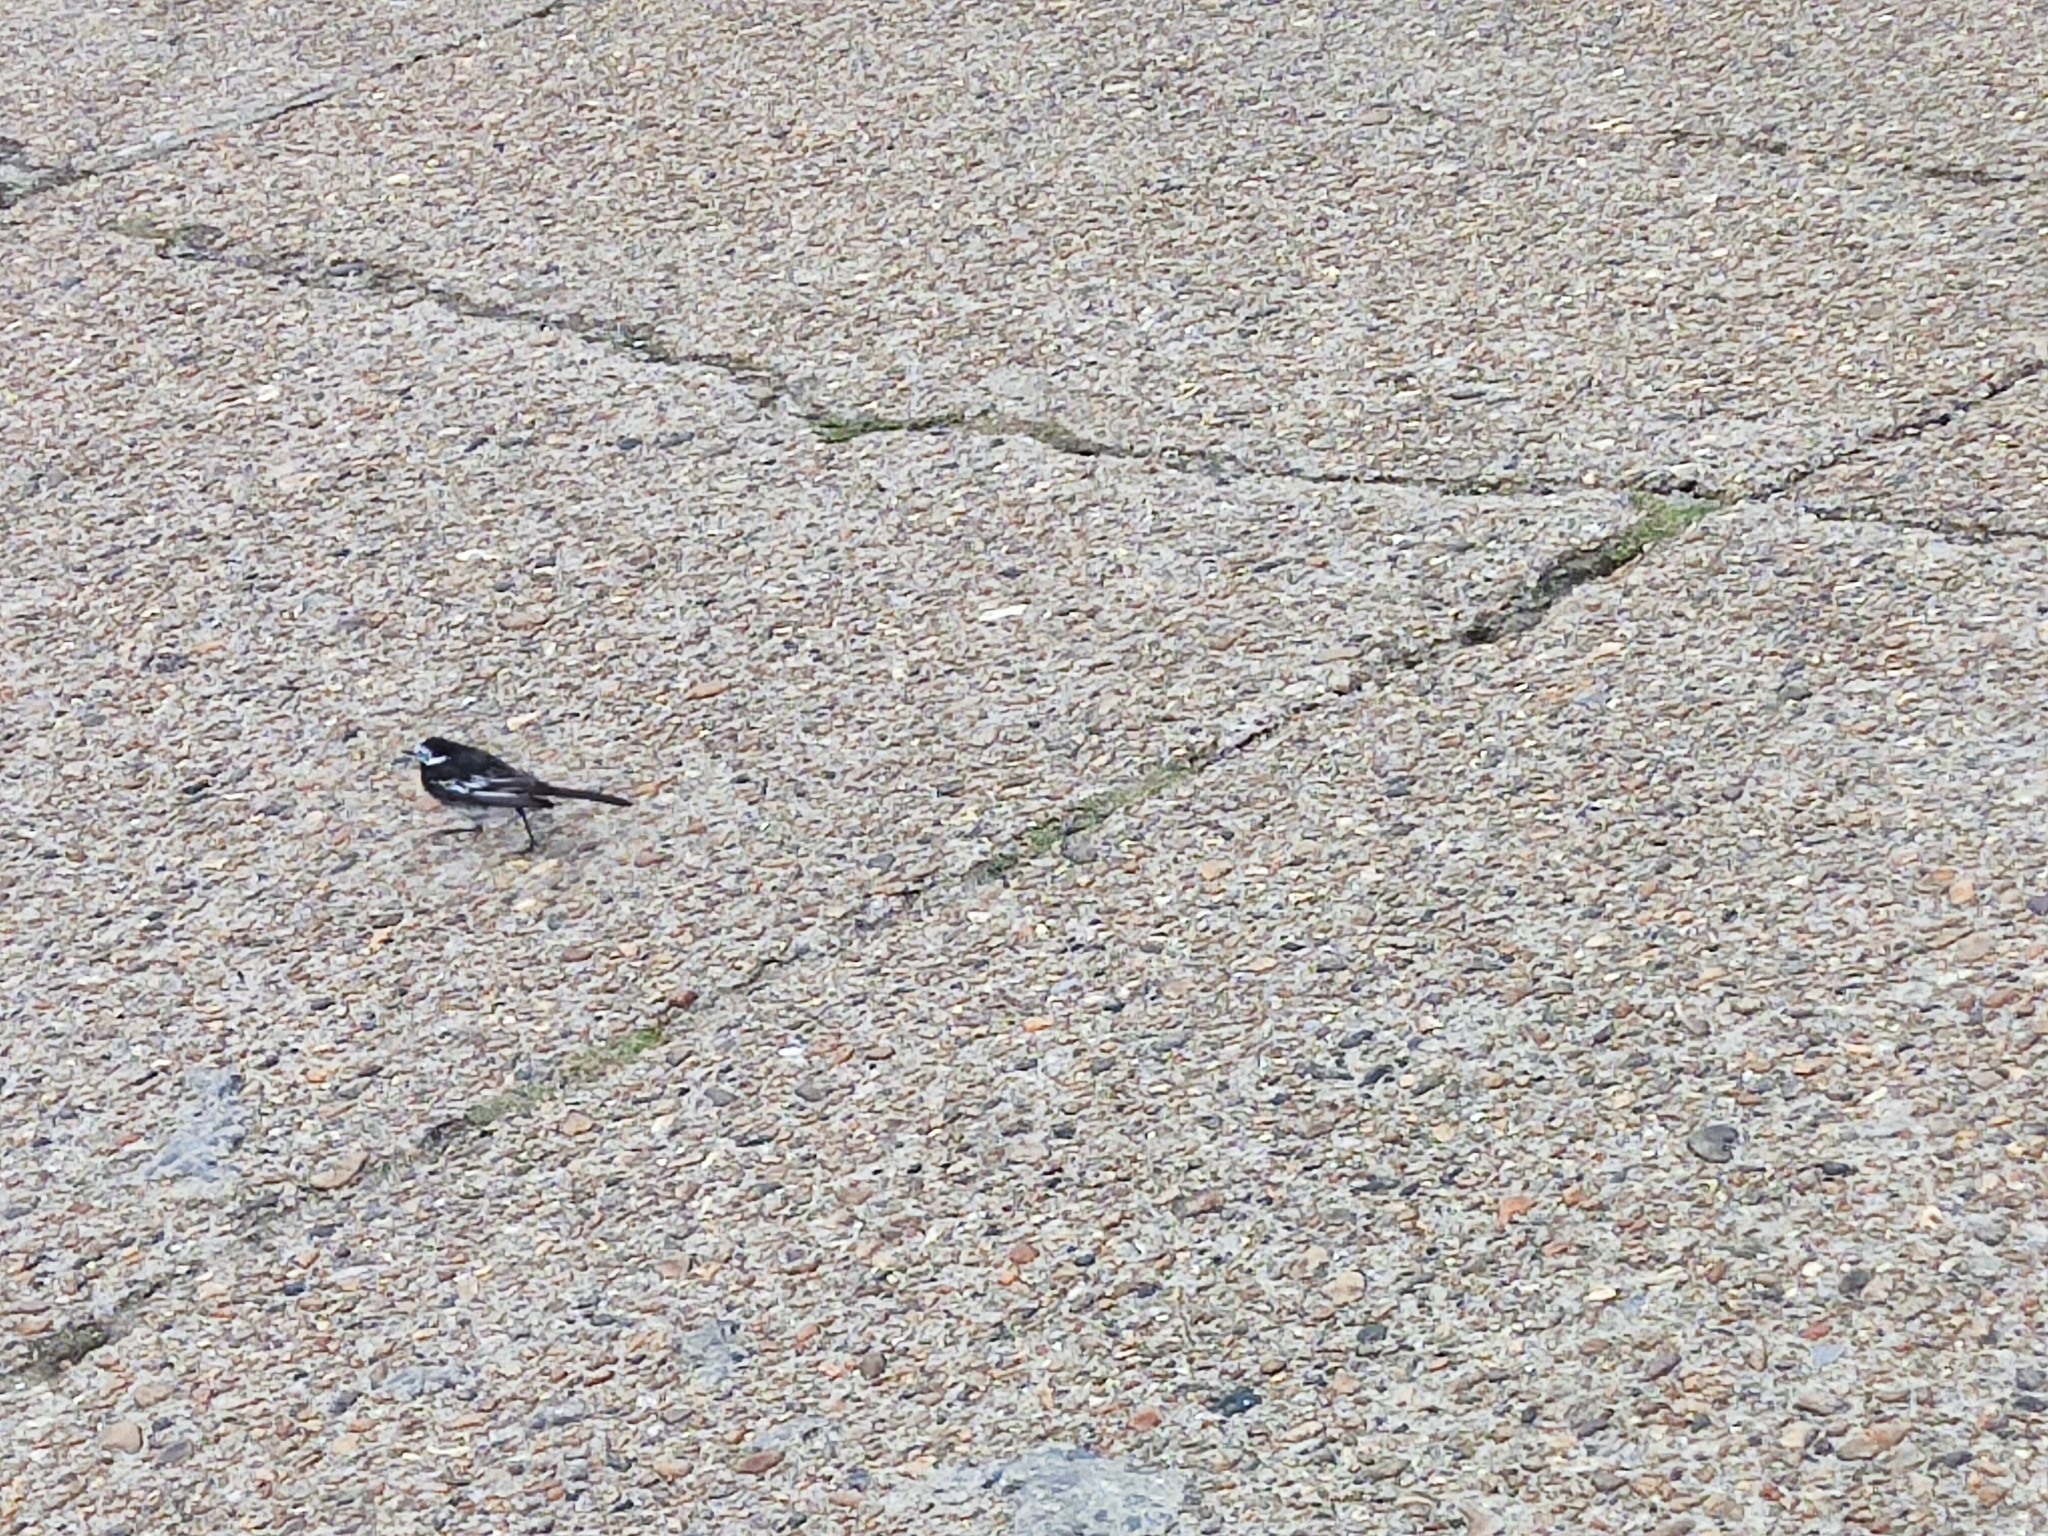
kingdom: Animalia
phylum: Chordata
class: Aves
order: Passeriformes
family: Motacillidae
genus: Motacilla
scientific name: Motacilla alba
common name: White wagtail
